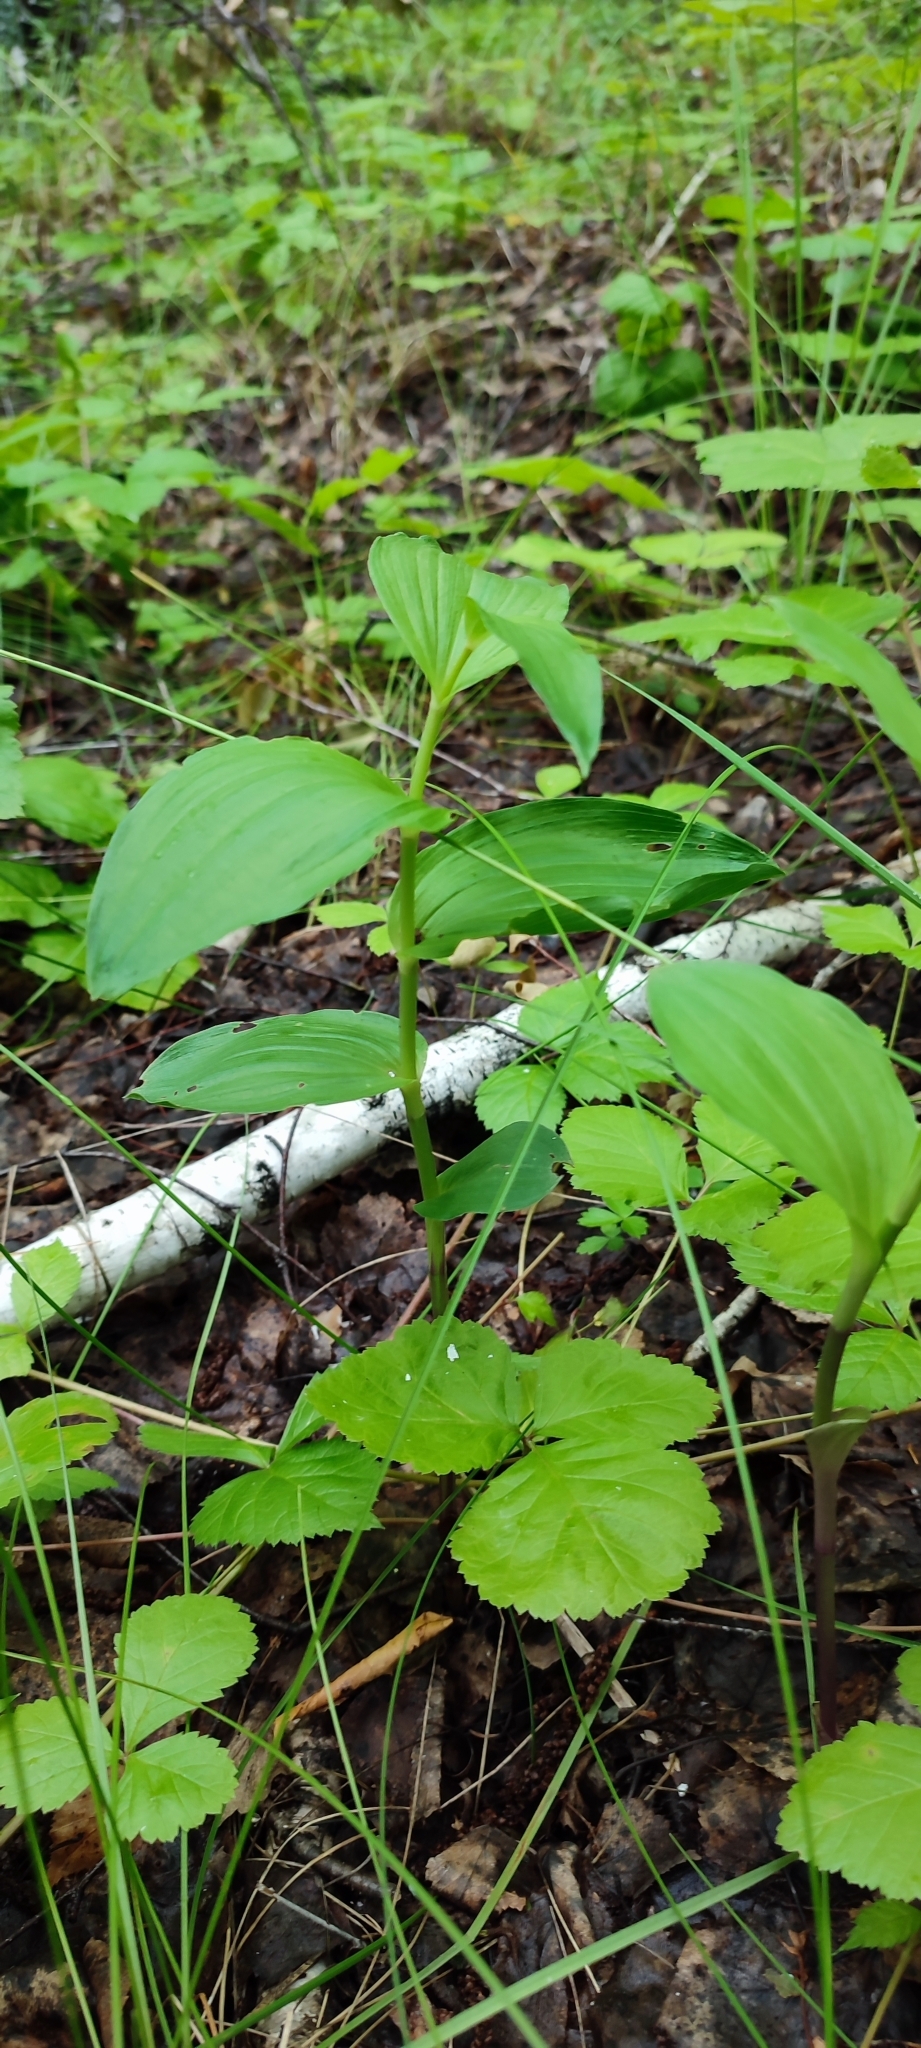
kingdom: Plantae
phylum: Tracheophyta
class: Liliopsida
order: Asparagales
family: Orchidaceae
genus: Epipactis
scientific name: Epipactis helleborine
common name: Broad-leaved helleborine
